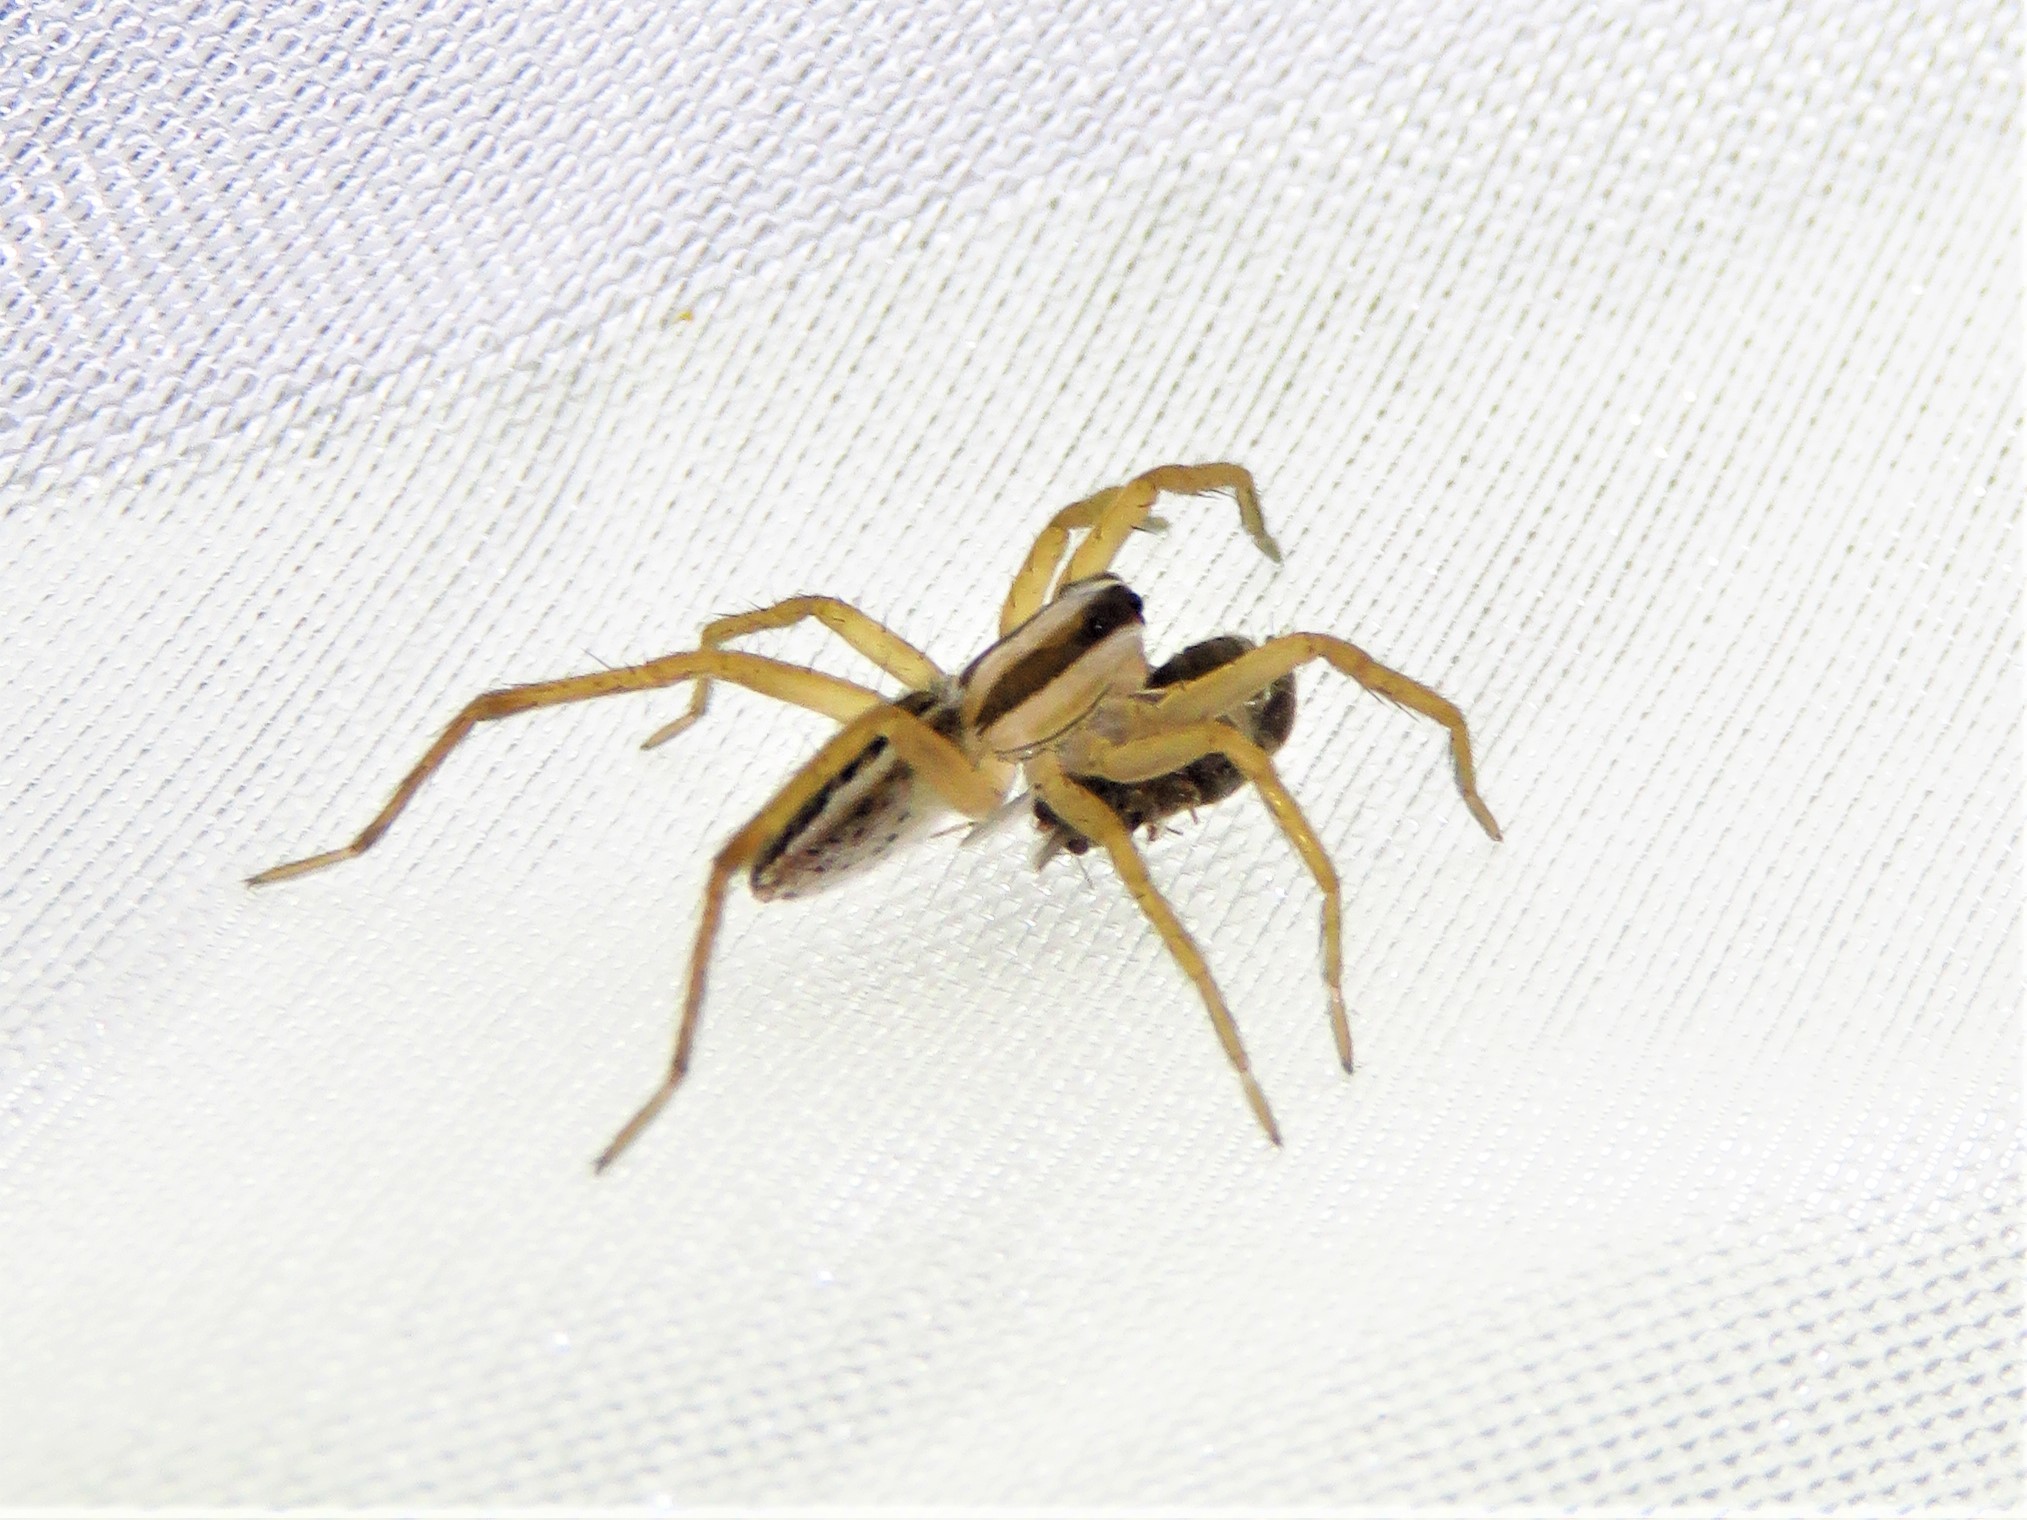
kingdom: Animalia
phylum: Arthropoda
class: Arachnida
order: Araneae
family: Lycosidae
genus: Rabidosa
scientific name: Rabidosa punctulata
